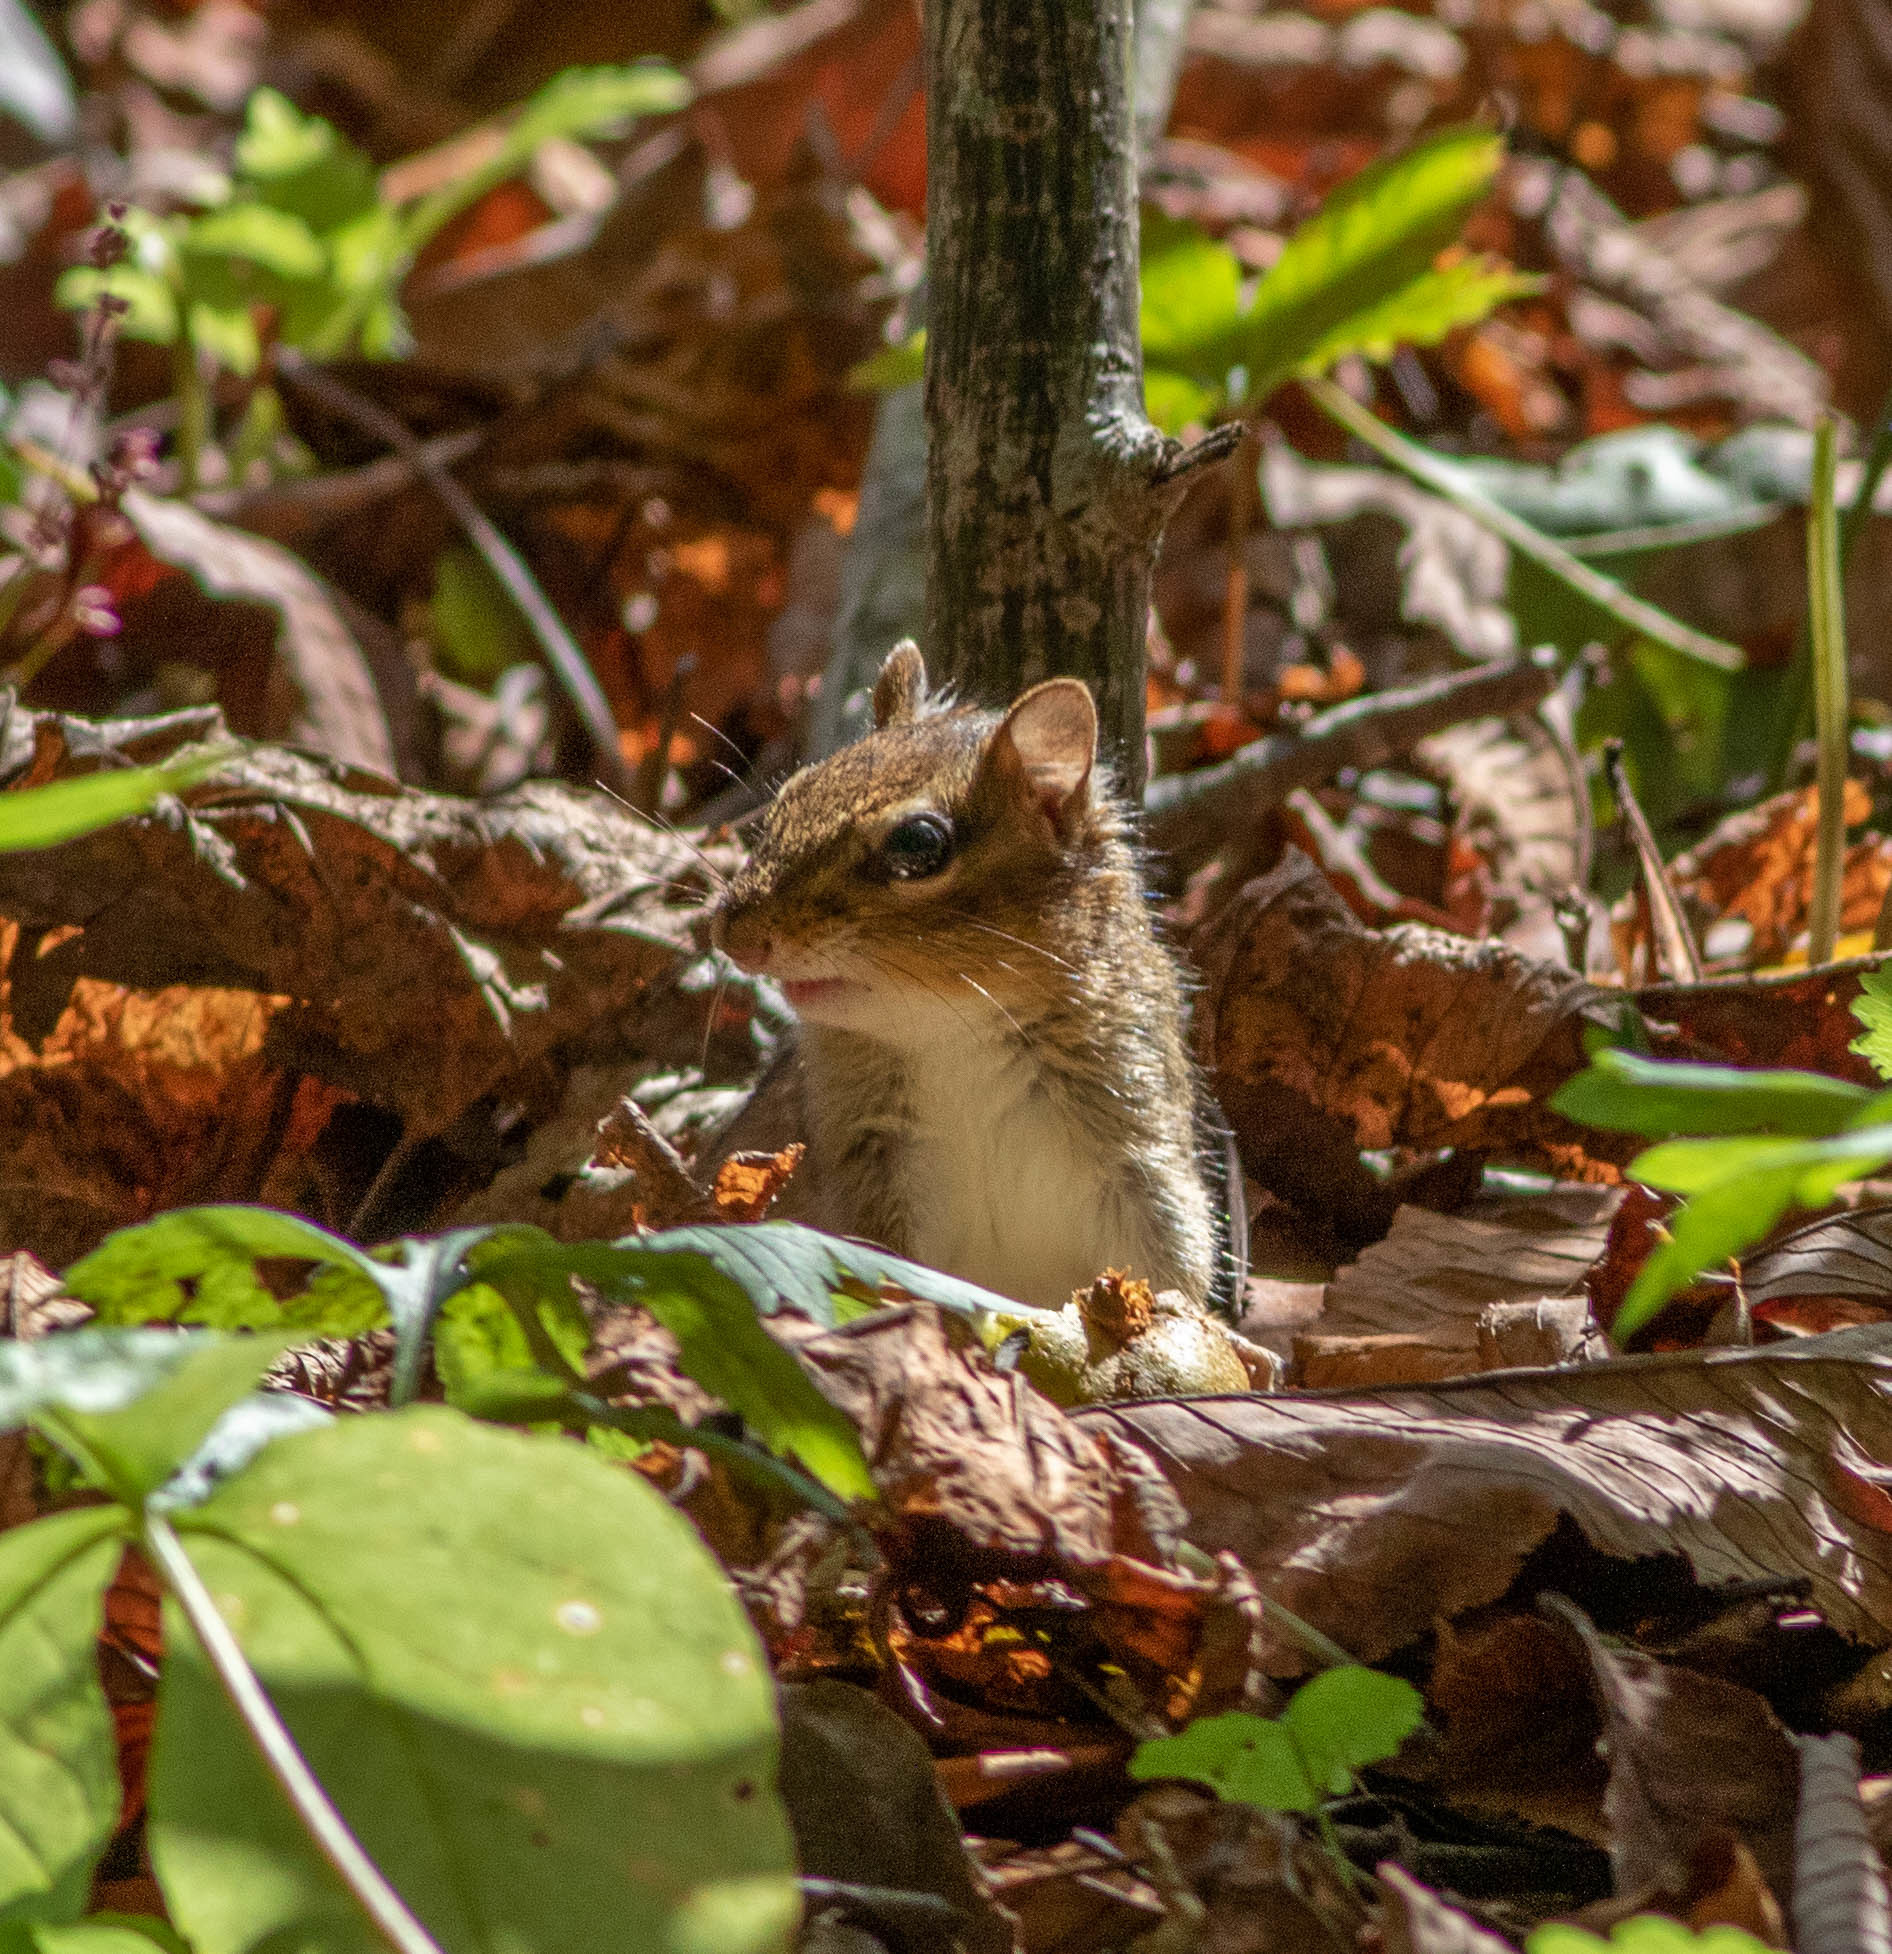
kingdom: Animalia
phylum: Chordata
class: Mammalia
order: Rodentia
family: Sciuridae
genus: Tamias
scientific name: Tamias striatus
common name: Eastern chipmunk
